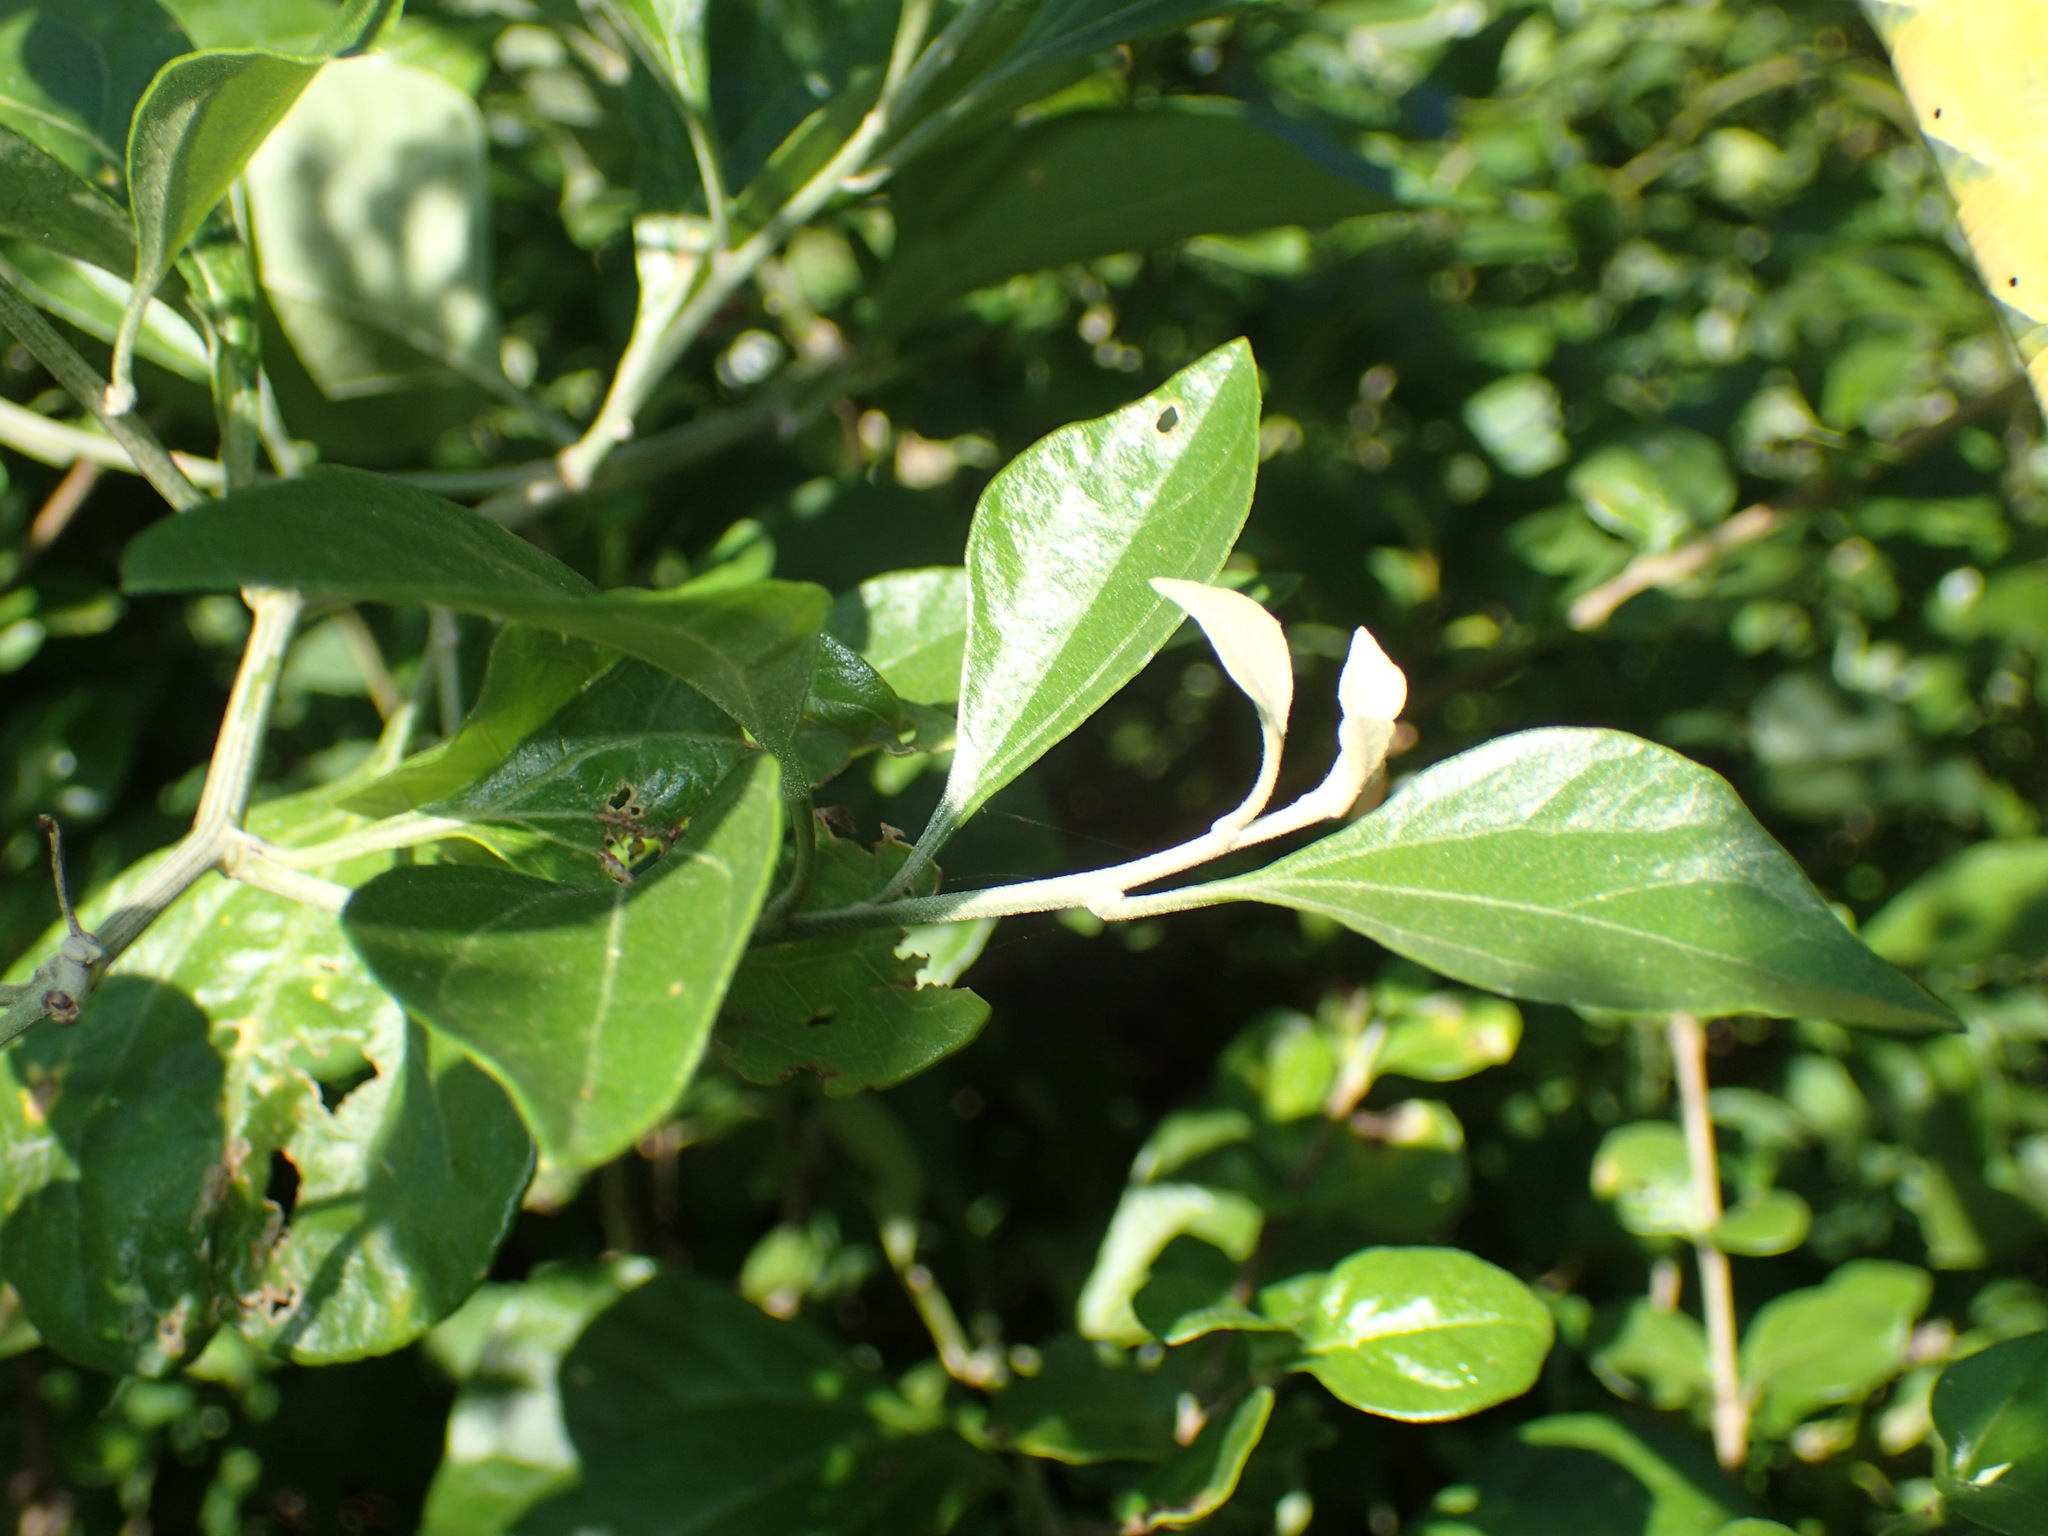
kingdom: Plantae
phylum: Tracheophyta
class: Magnoliopsida
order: Asterales
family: Asteraceae
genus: Distephanus
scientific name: Distephanus anisochaetoides
